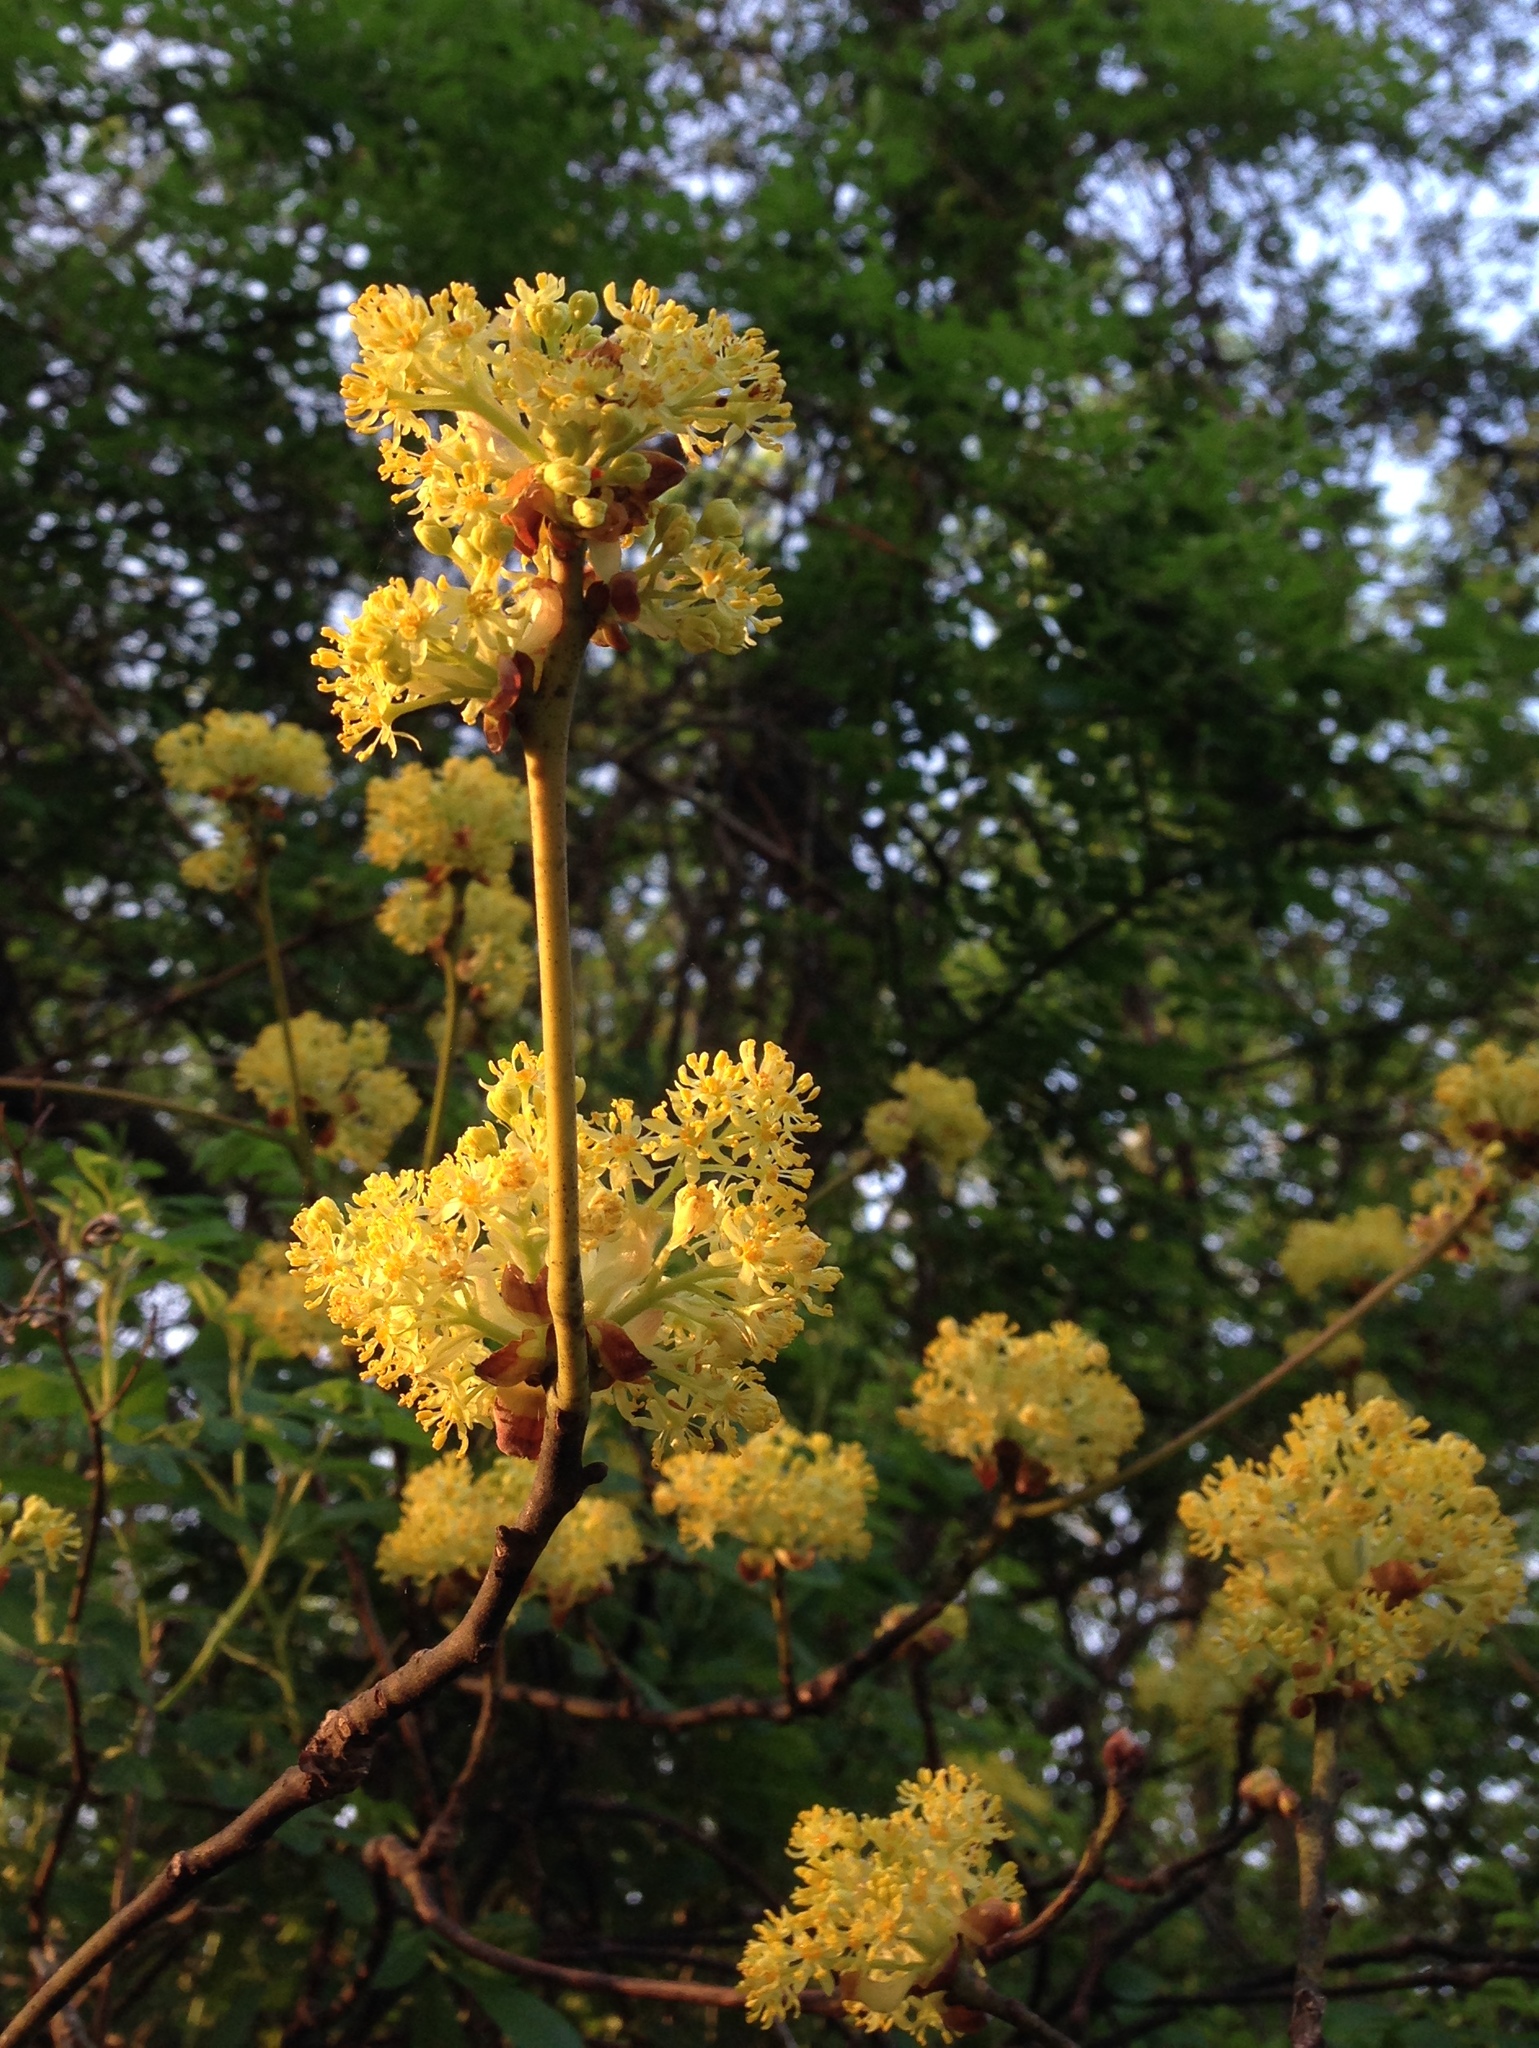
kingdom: Plantae
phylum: Tracheophyta
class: Magnoliopsida
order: Laurales
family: Lauraceae
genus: Sassafras
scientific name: Sassafras albidum
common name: Sassafras
